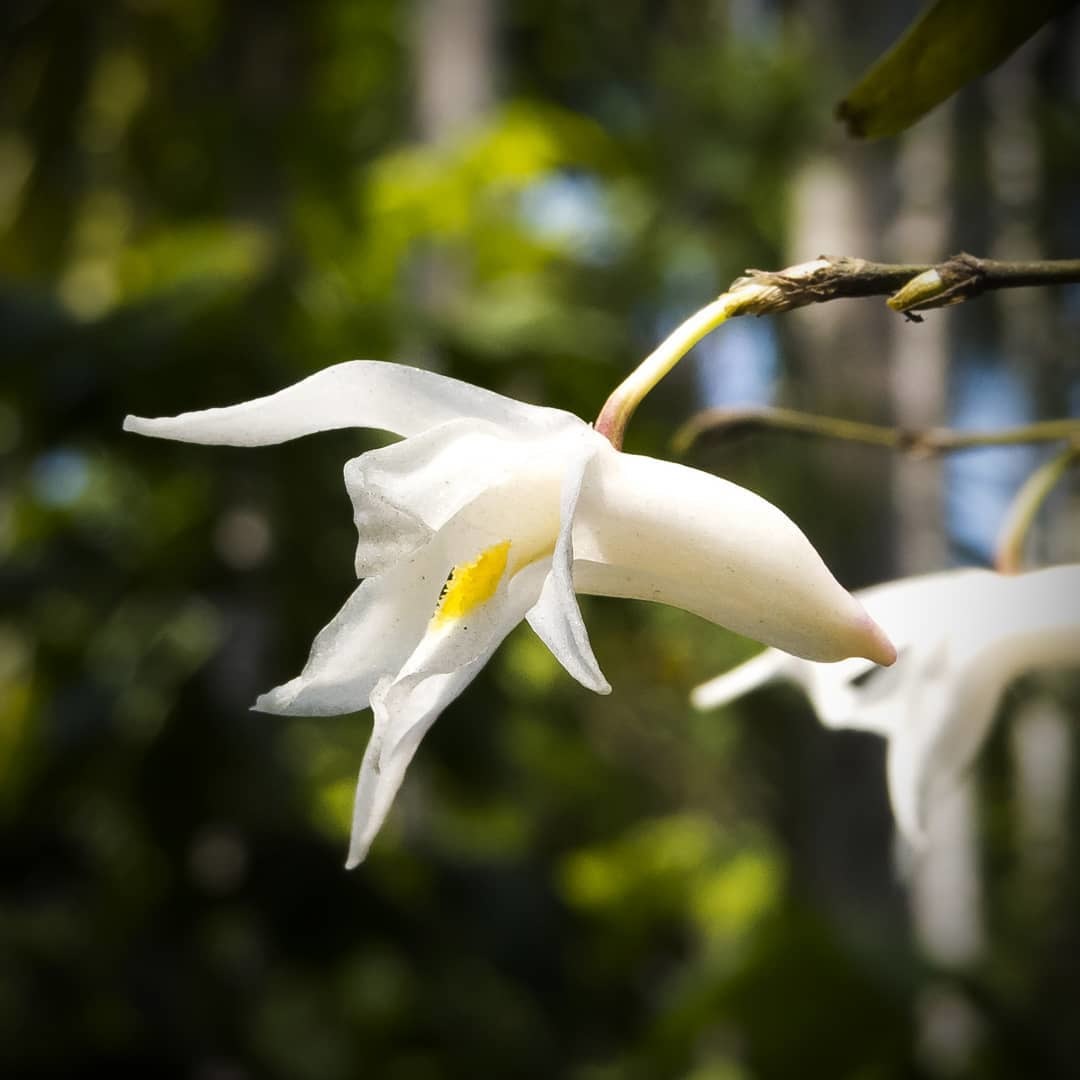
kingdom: Plantae
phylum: Tracheophyta
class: Liliopsida
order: Asparagales
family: Orchidaceae
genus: Dendrobium
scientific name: Dendrobium crumenatum
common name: Orchid
